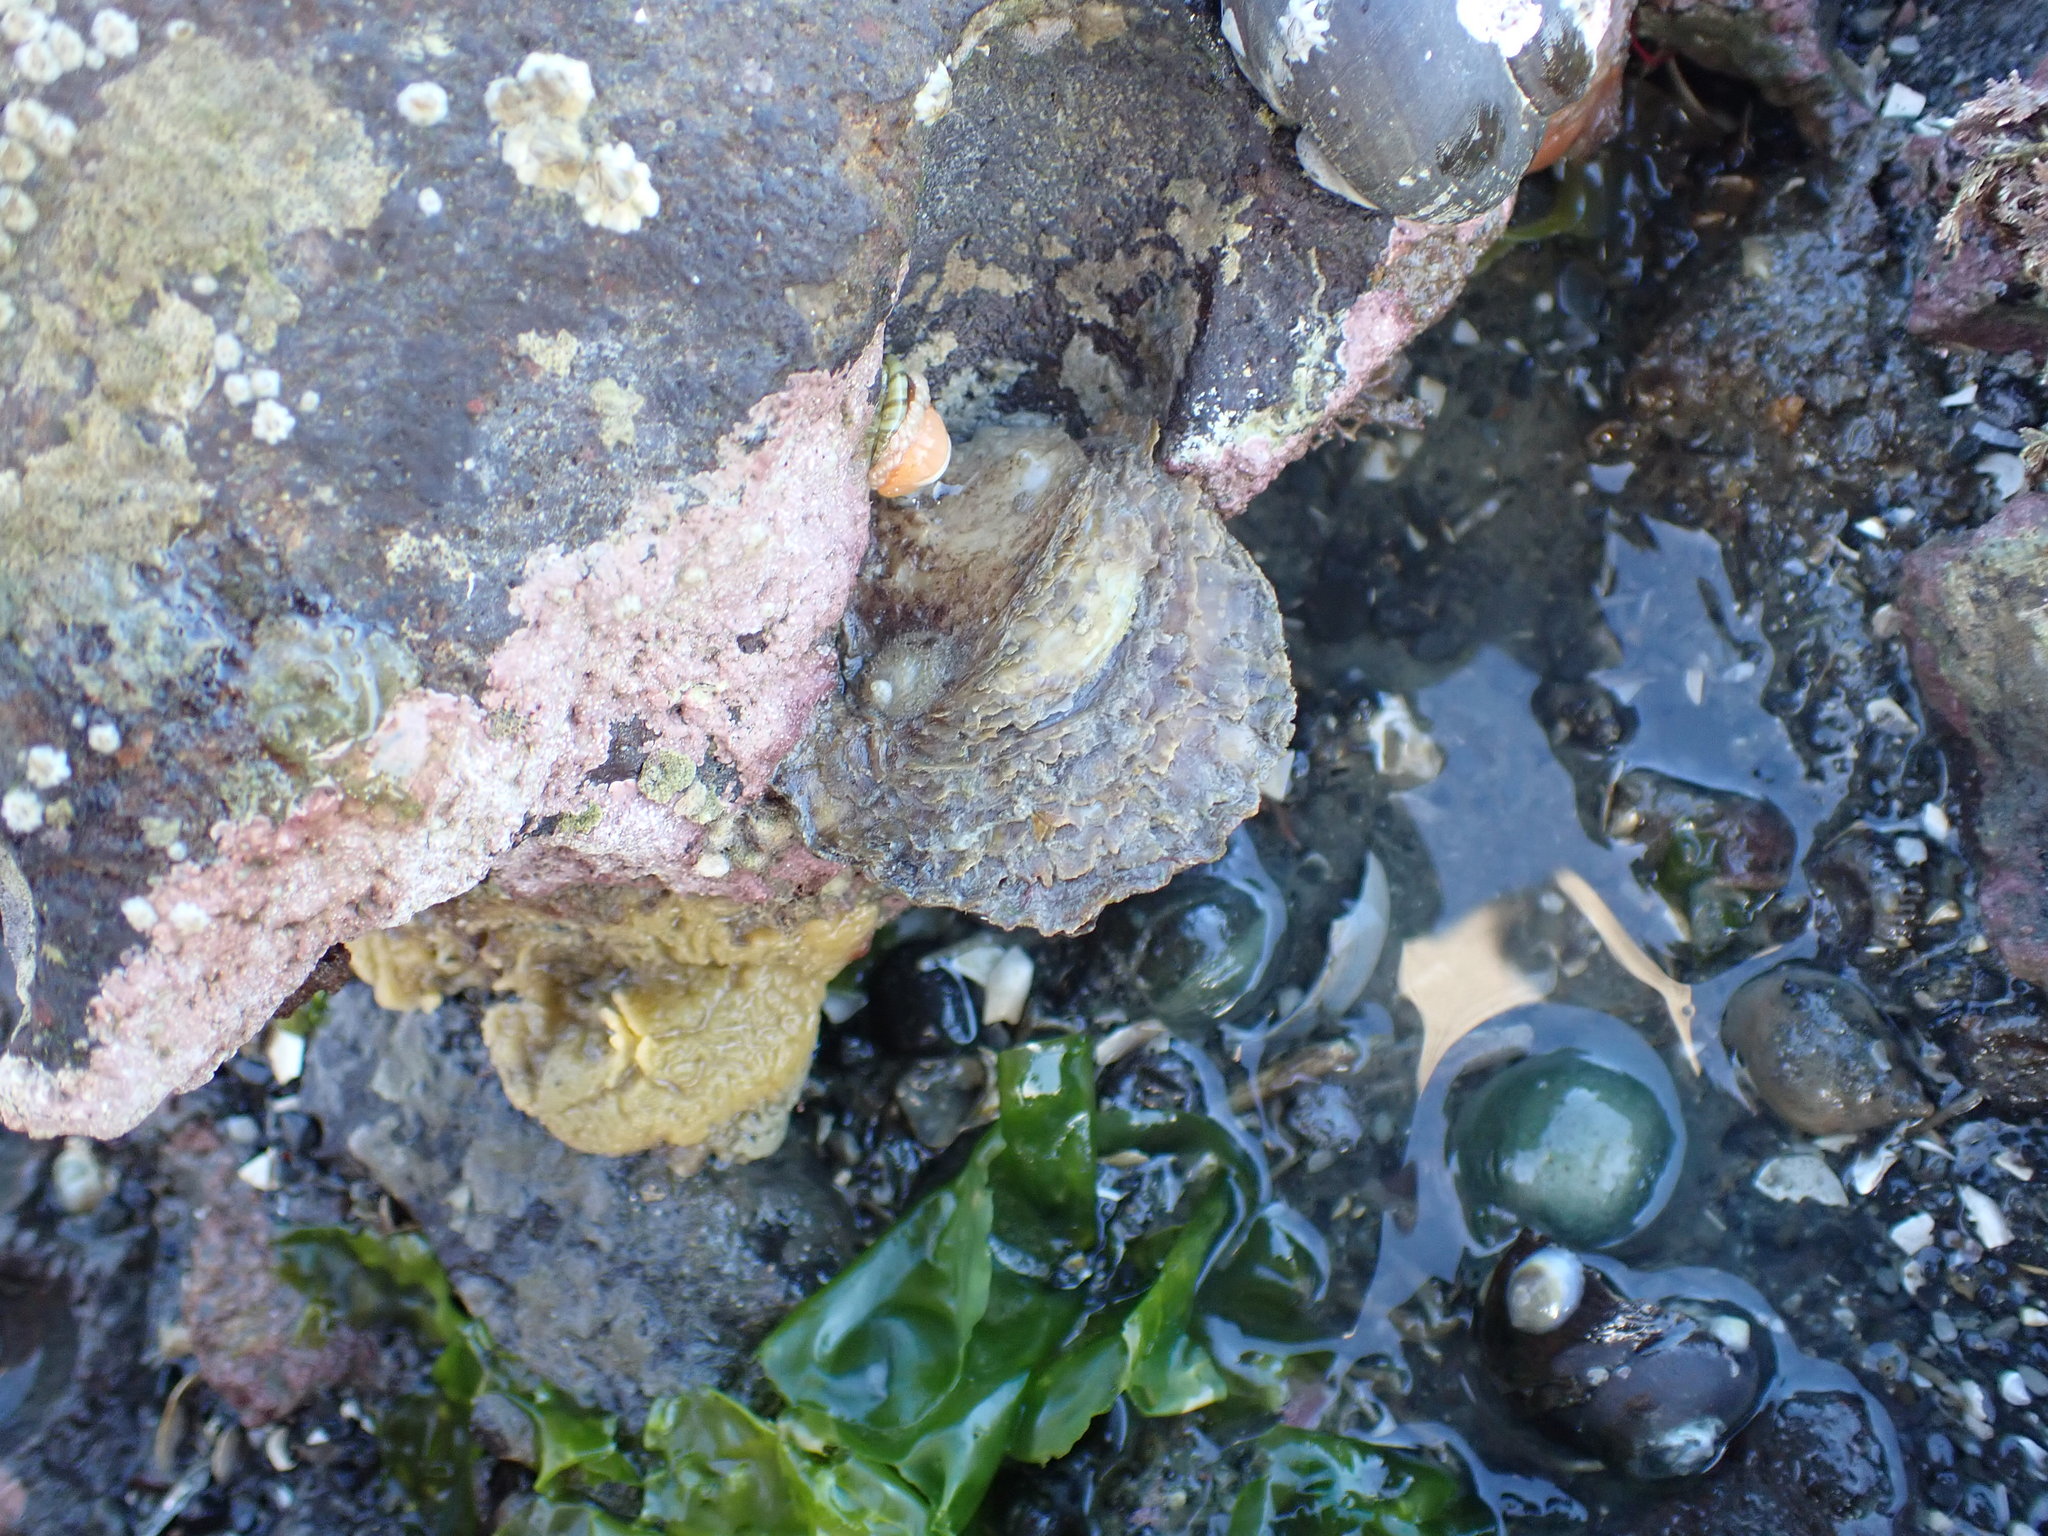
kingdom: Animalia
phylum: Mollusca
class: Gastropoda
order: Littorinimorpha
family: Calyptraeidae
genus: Sigapatella
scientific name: Sigapatella novaezelandiae
